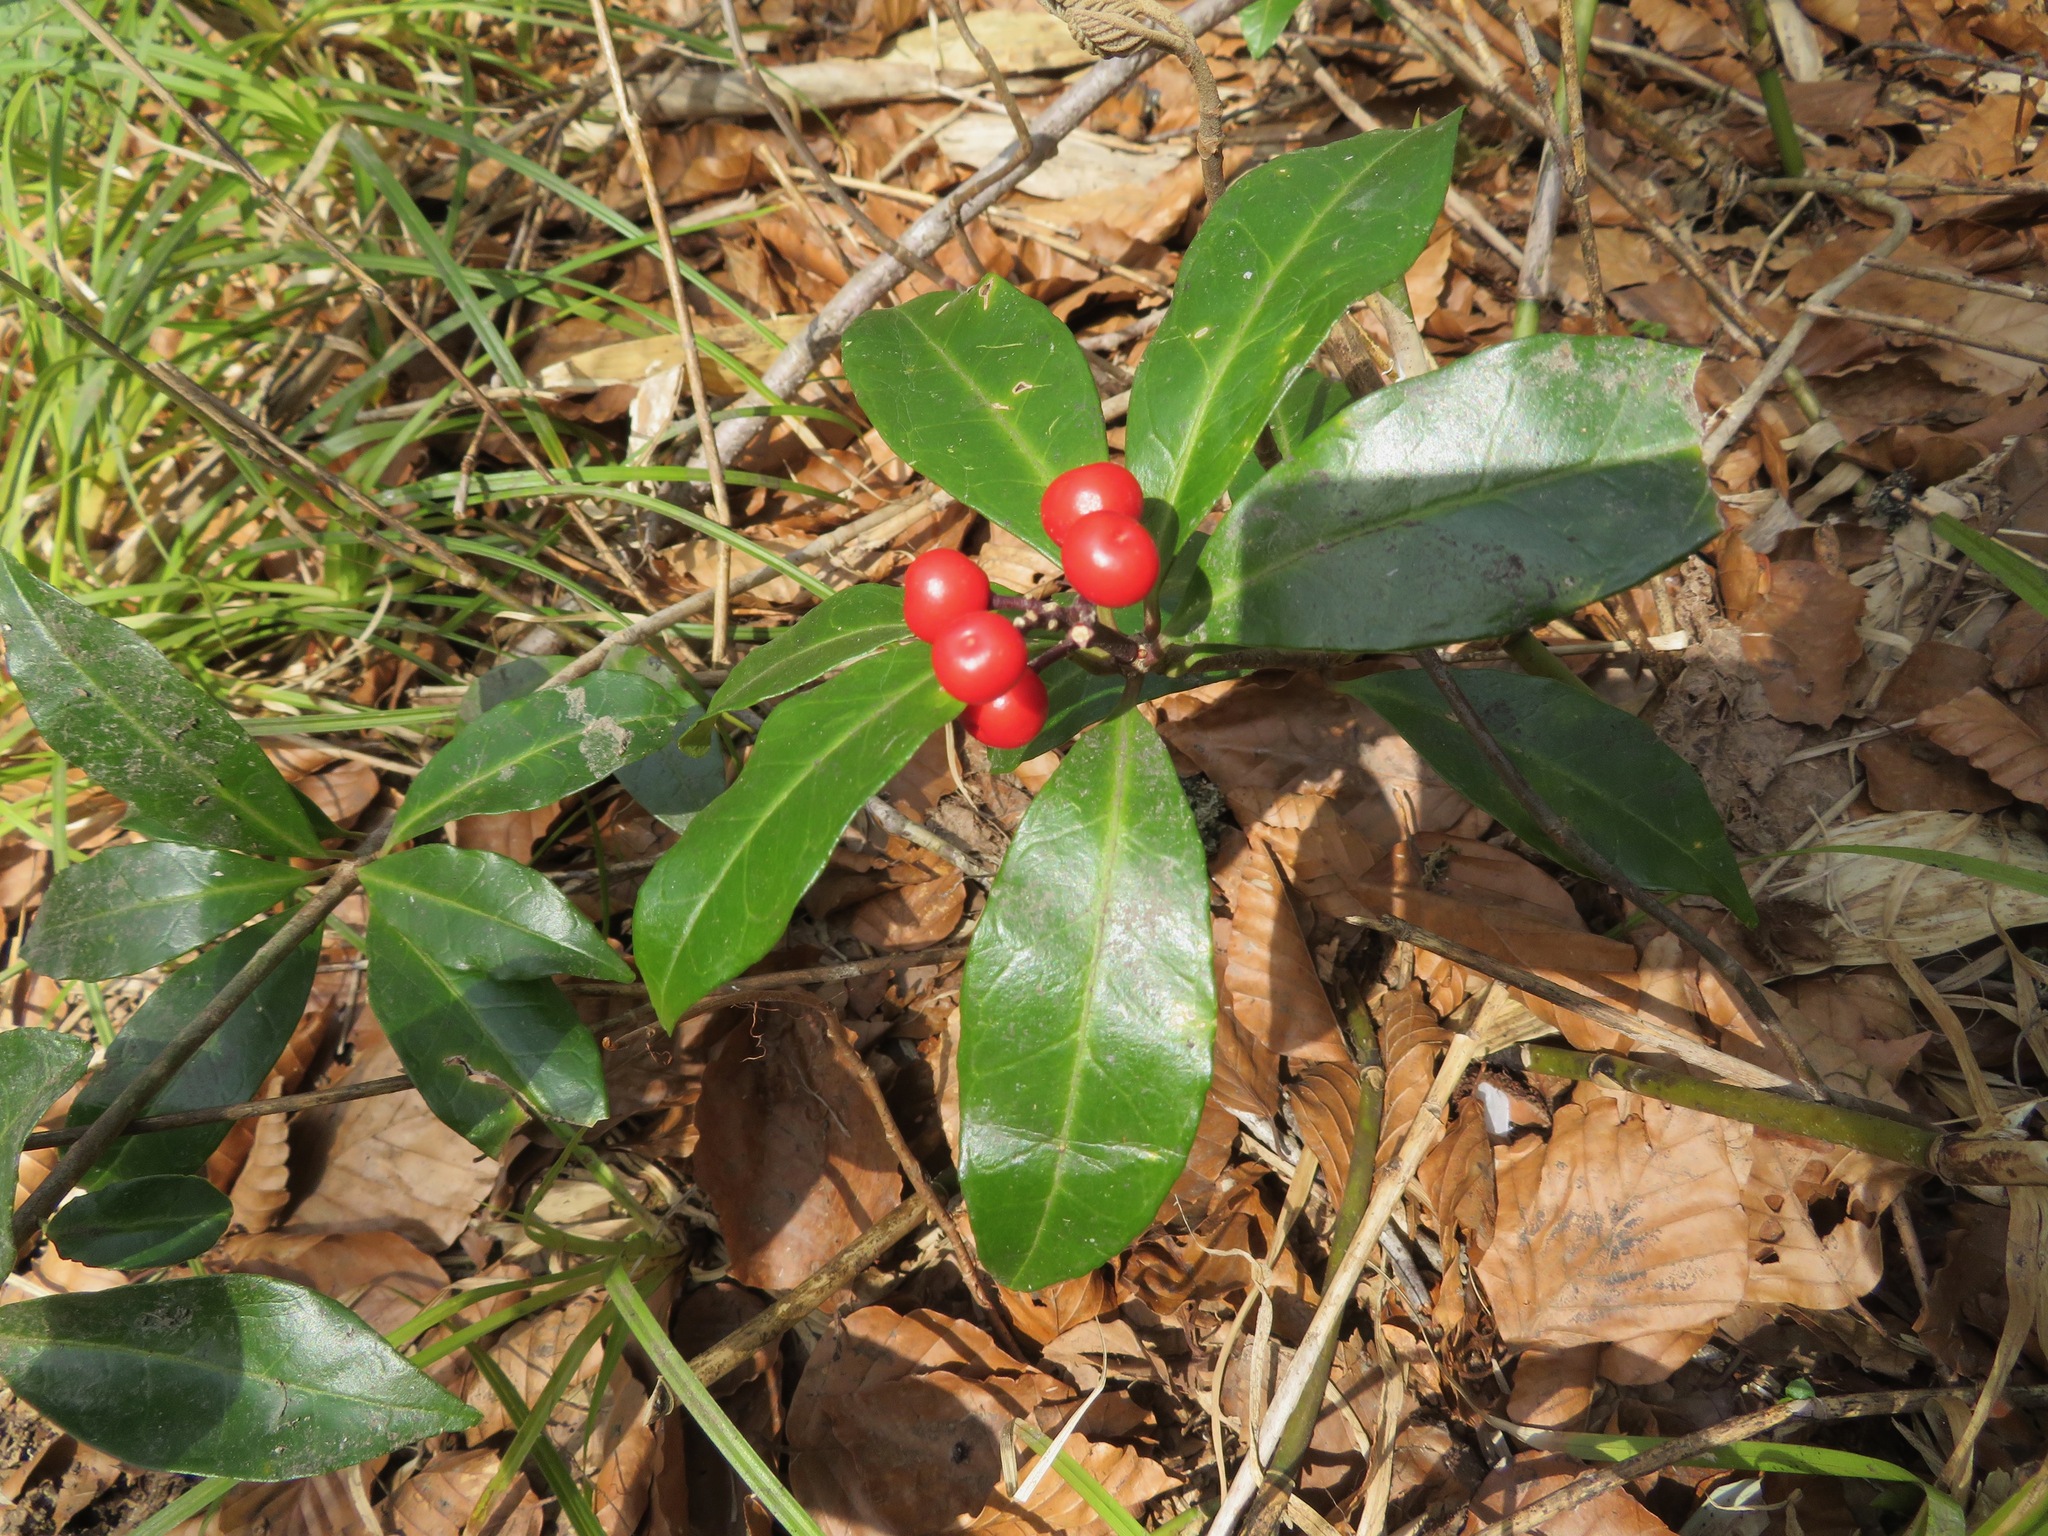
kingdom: Plantae
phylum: Tracheophyta
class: Magnoliopsida
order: Sapindales
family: Rutaceae
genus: Skimmia
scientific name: Skimmia japonica
